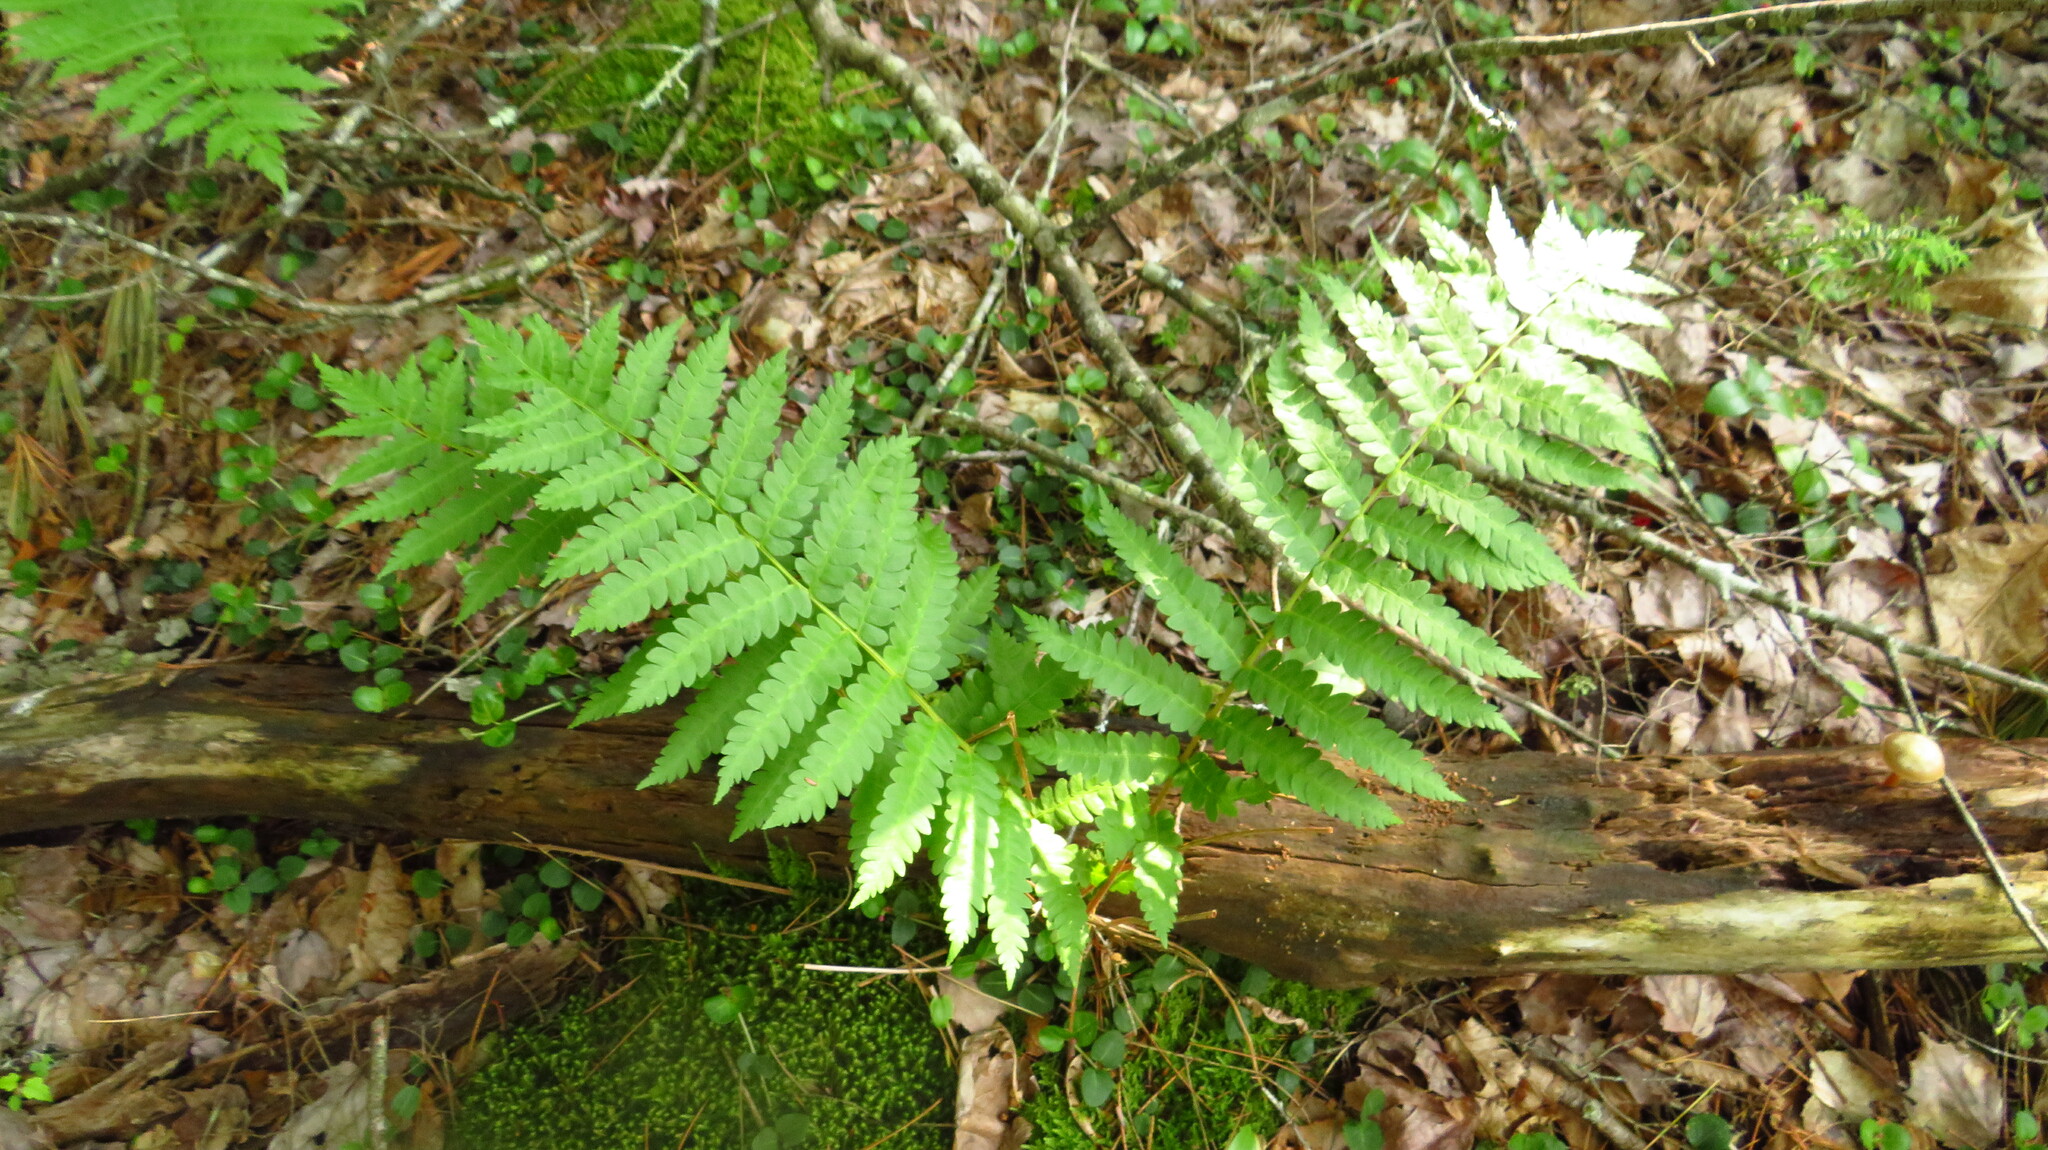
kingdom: Plantae
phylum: Tracheophyta
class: Polypodiopsida
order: Osmundales
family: Osmundaceae
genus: Osmundastrum
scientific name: Osmundastrum cinnamomeum
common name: Cinnamon fern
